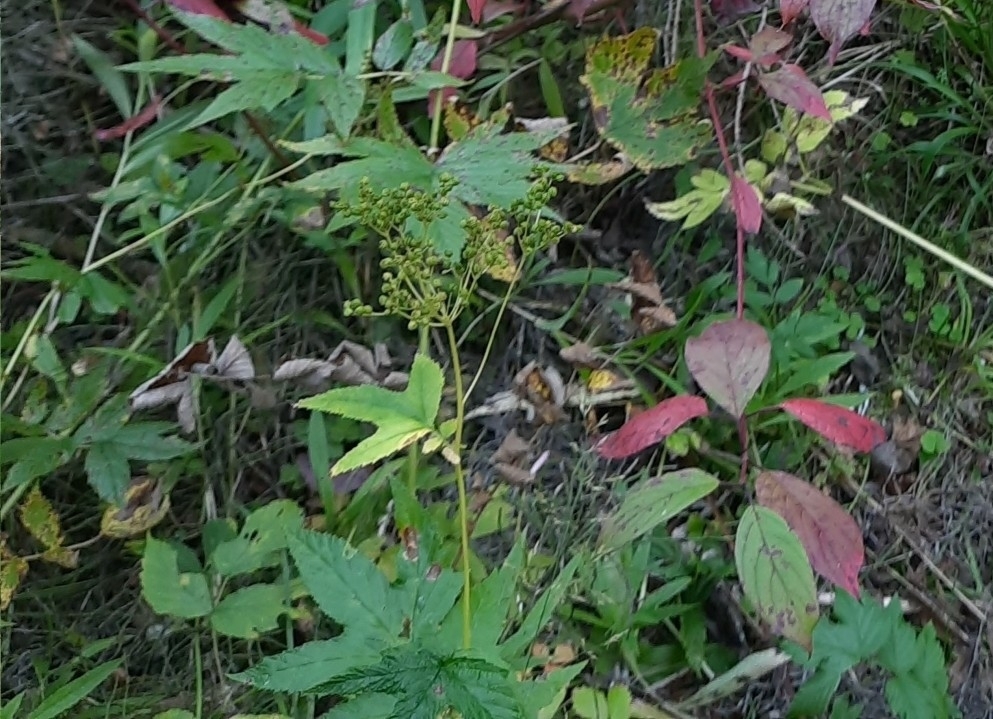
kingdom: Plantae
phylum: Tracheophyta
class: Magnoliopsida
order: Rosales
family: Rosaceae
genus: Filipendula
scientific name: Filipendula ulmaria
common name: Meadowsweet
